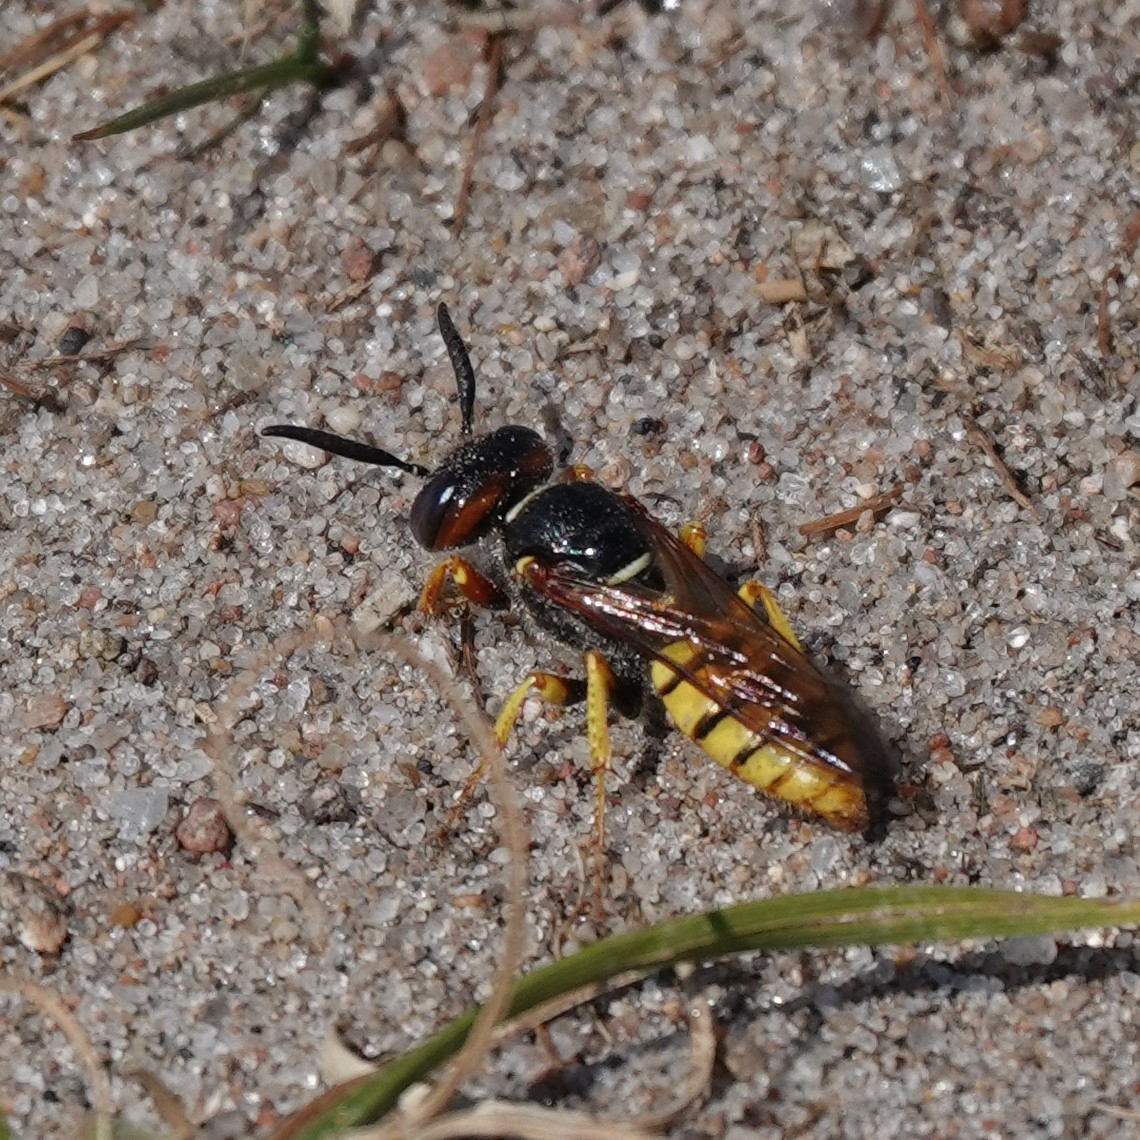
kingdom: Animalia
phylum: Arthropoda
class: Insecta
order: Hymenoptera
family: Crabronidae
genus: Philanthus
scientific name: Philanthus triangulum
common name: Bee wolf
